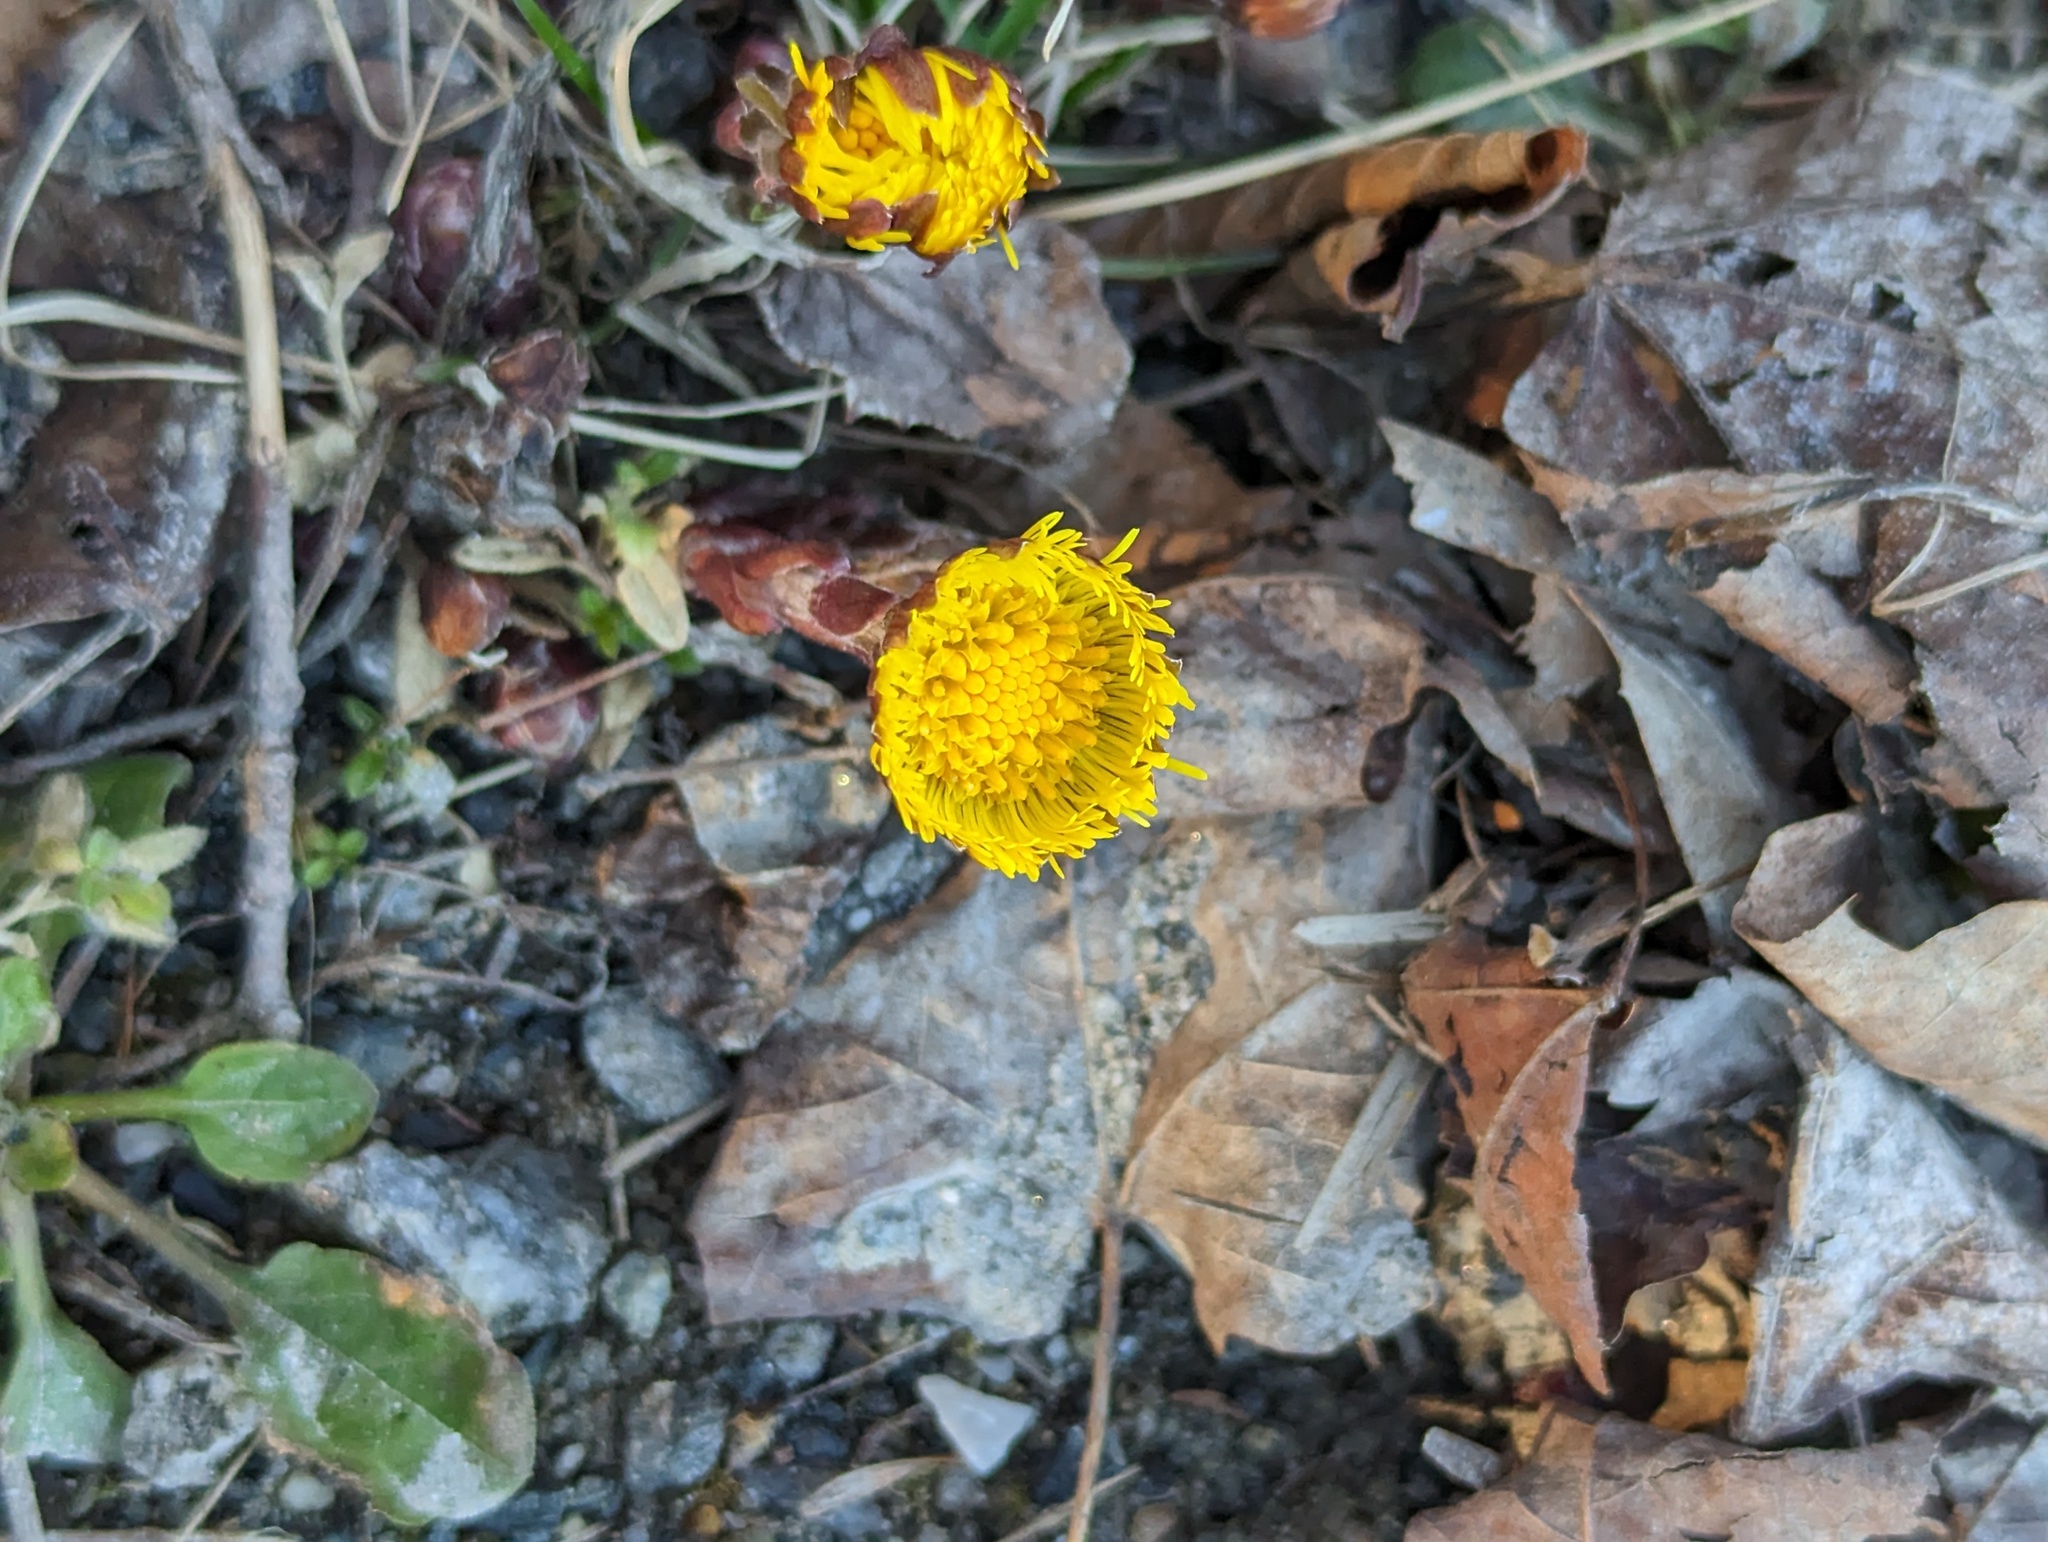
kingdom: Plantae
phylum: Tracheophyta
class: Magnoliopsida
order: Asterales
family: Asteraceae
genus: Tussilago
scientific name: Tussilago farfara
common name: Coltsfoot
